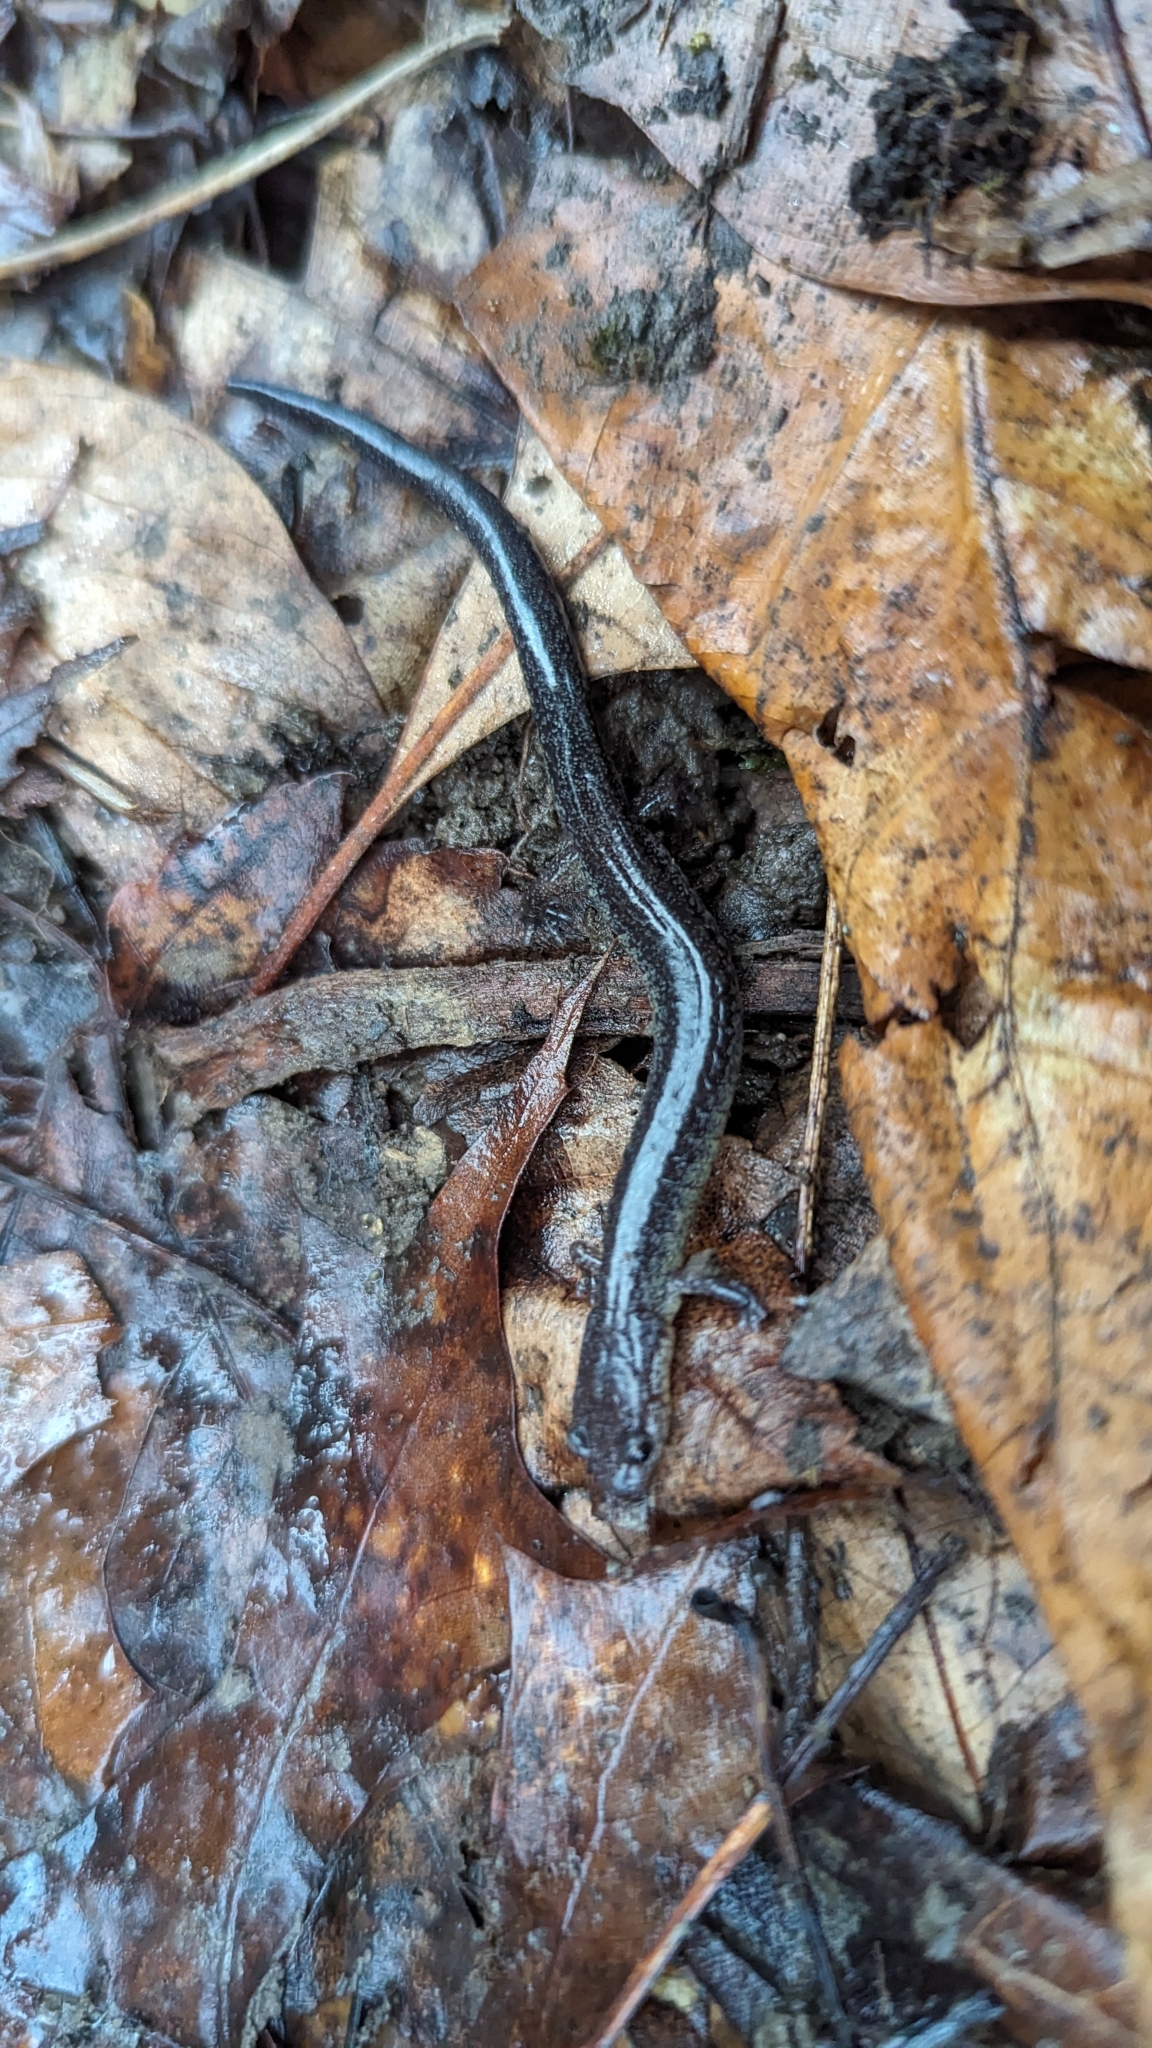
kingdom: Animalia
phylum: Chordata
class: Amphibia
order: Caudata
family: Plethodontidae
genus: Plethodon
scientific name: Plethodon cinereus
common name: Redback salamander
